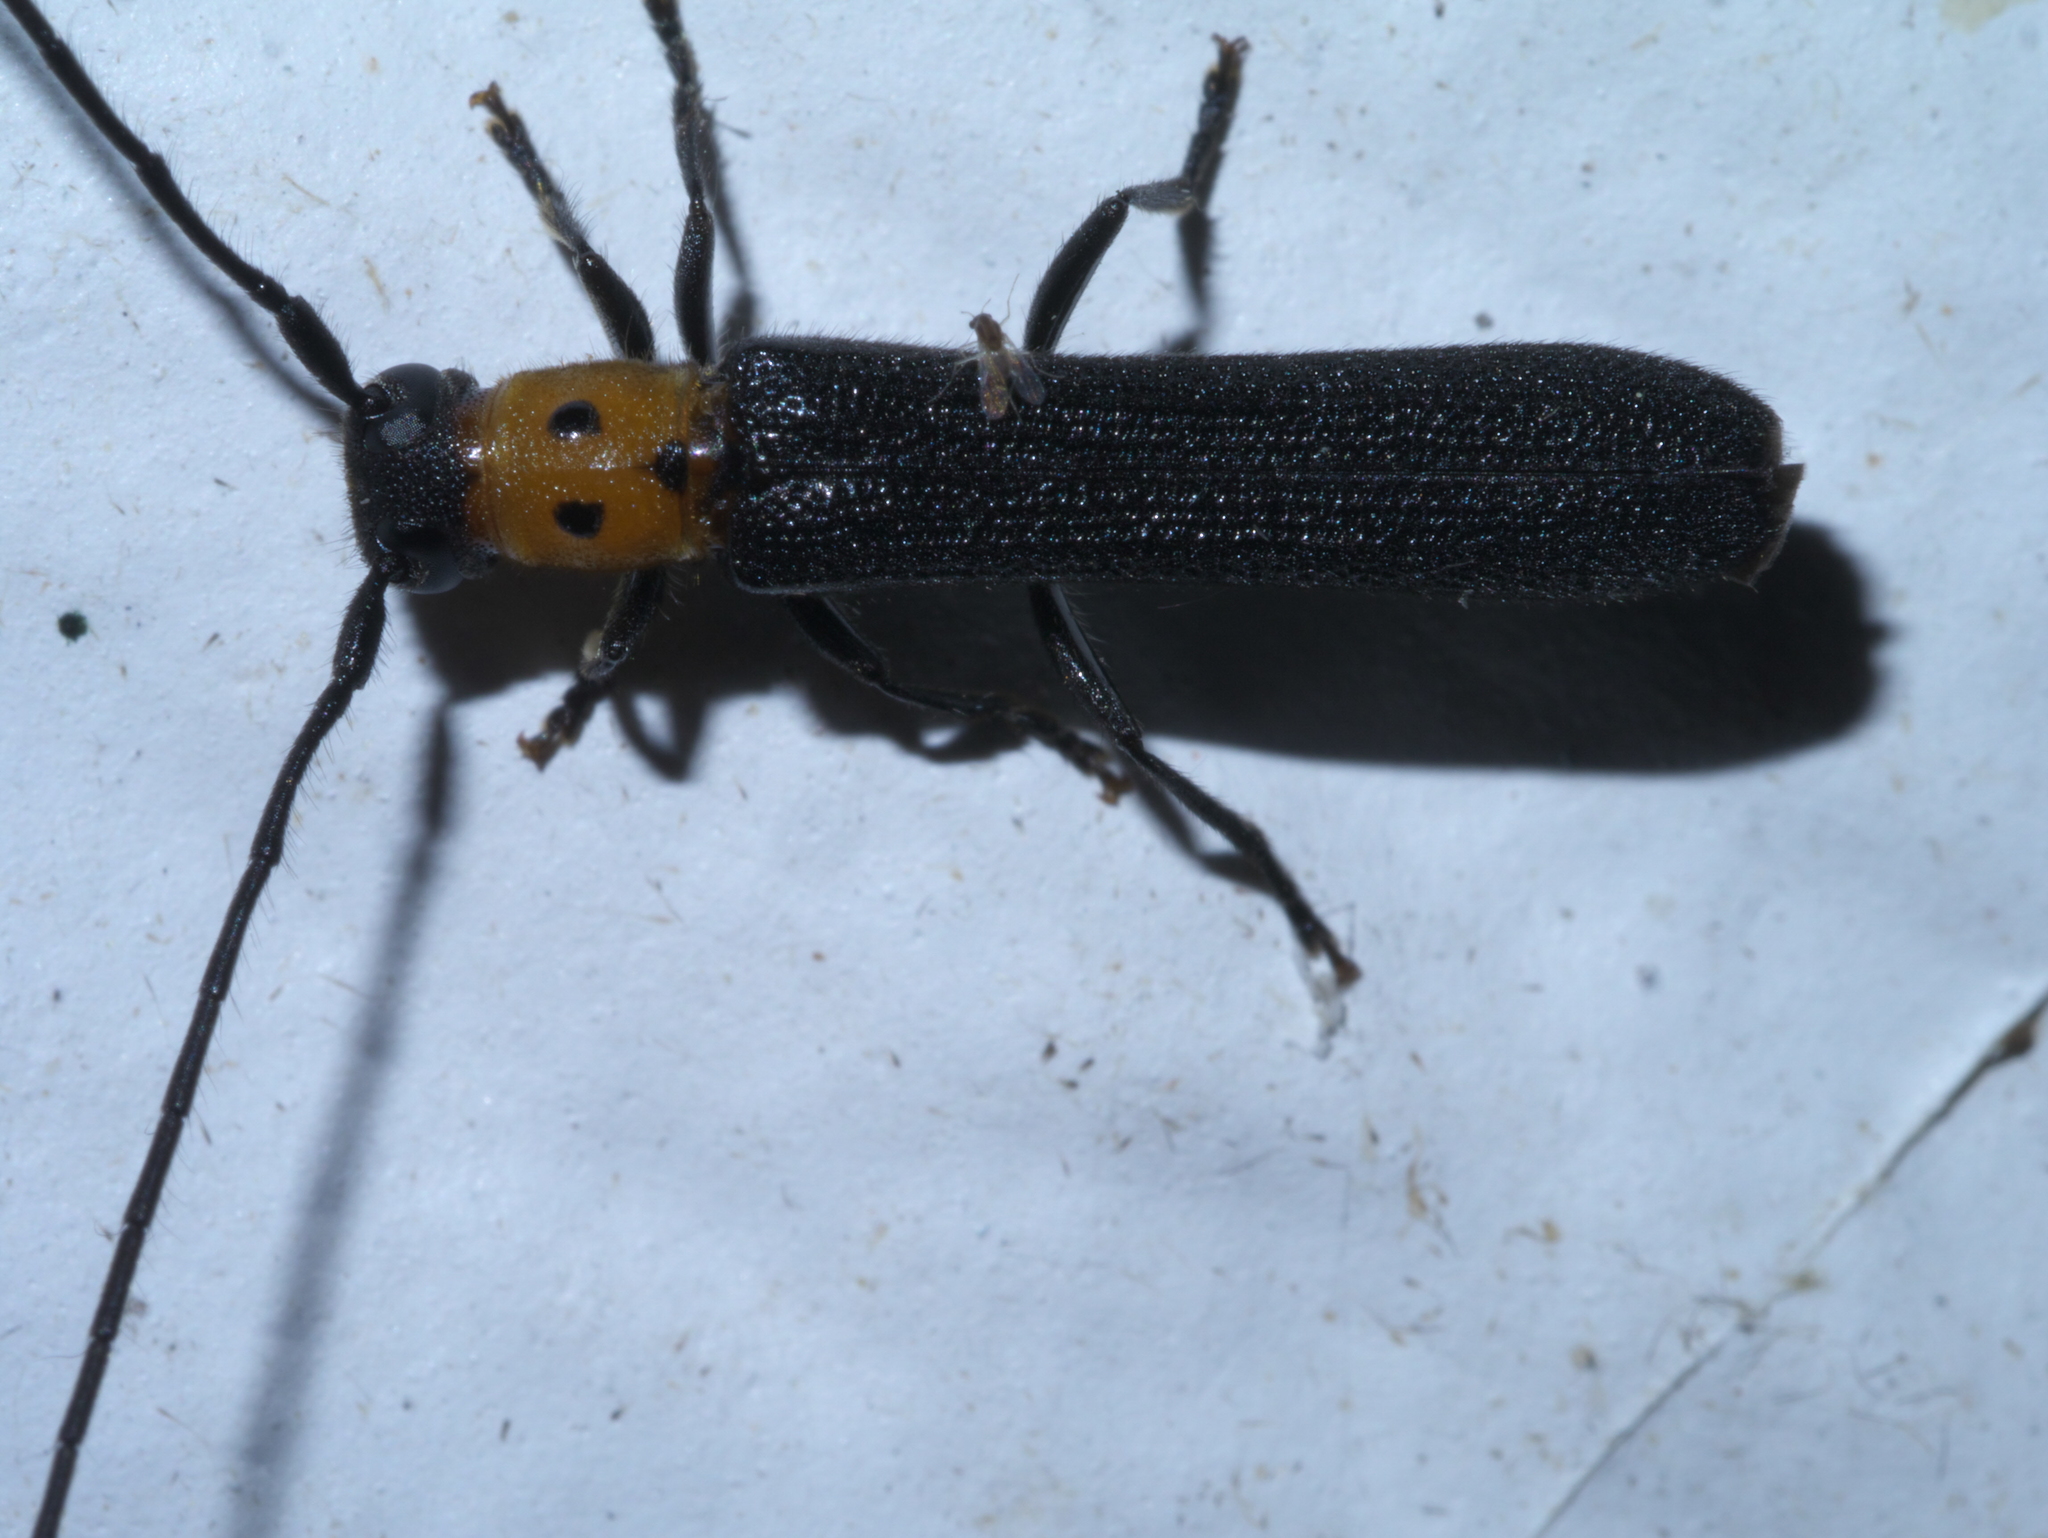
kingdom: Animalia
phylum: Arthropoda
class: Insecta
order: Coleoptera
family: Cerambycidae
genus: Oberea
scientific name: Oberea perspicillata
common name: Raspberry cane borer
